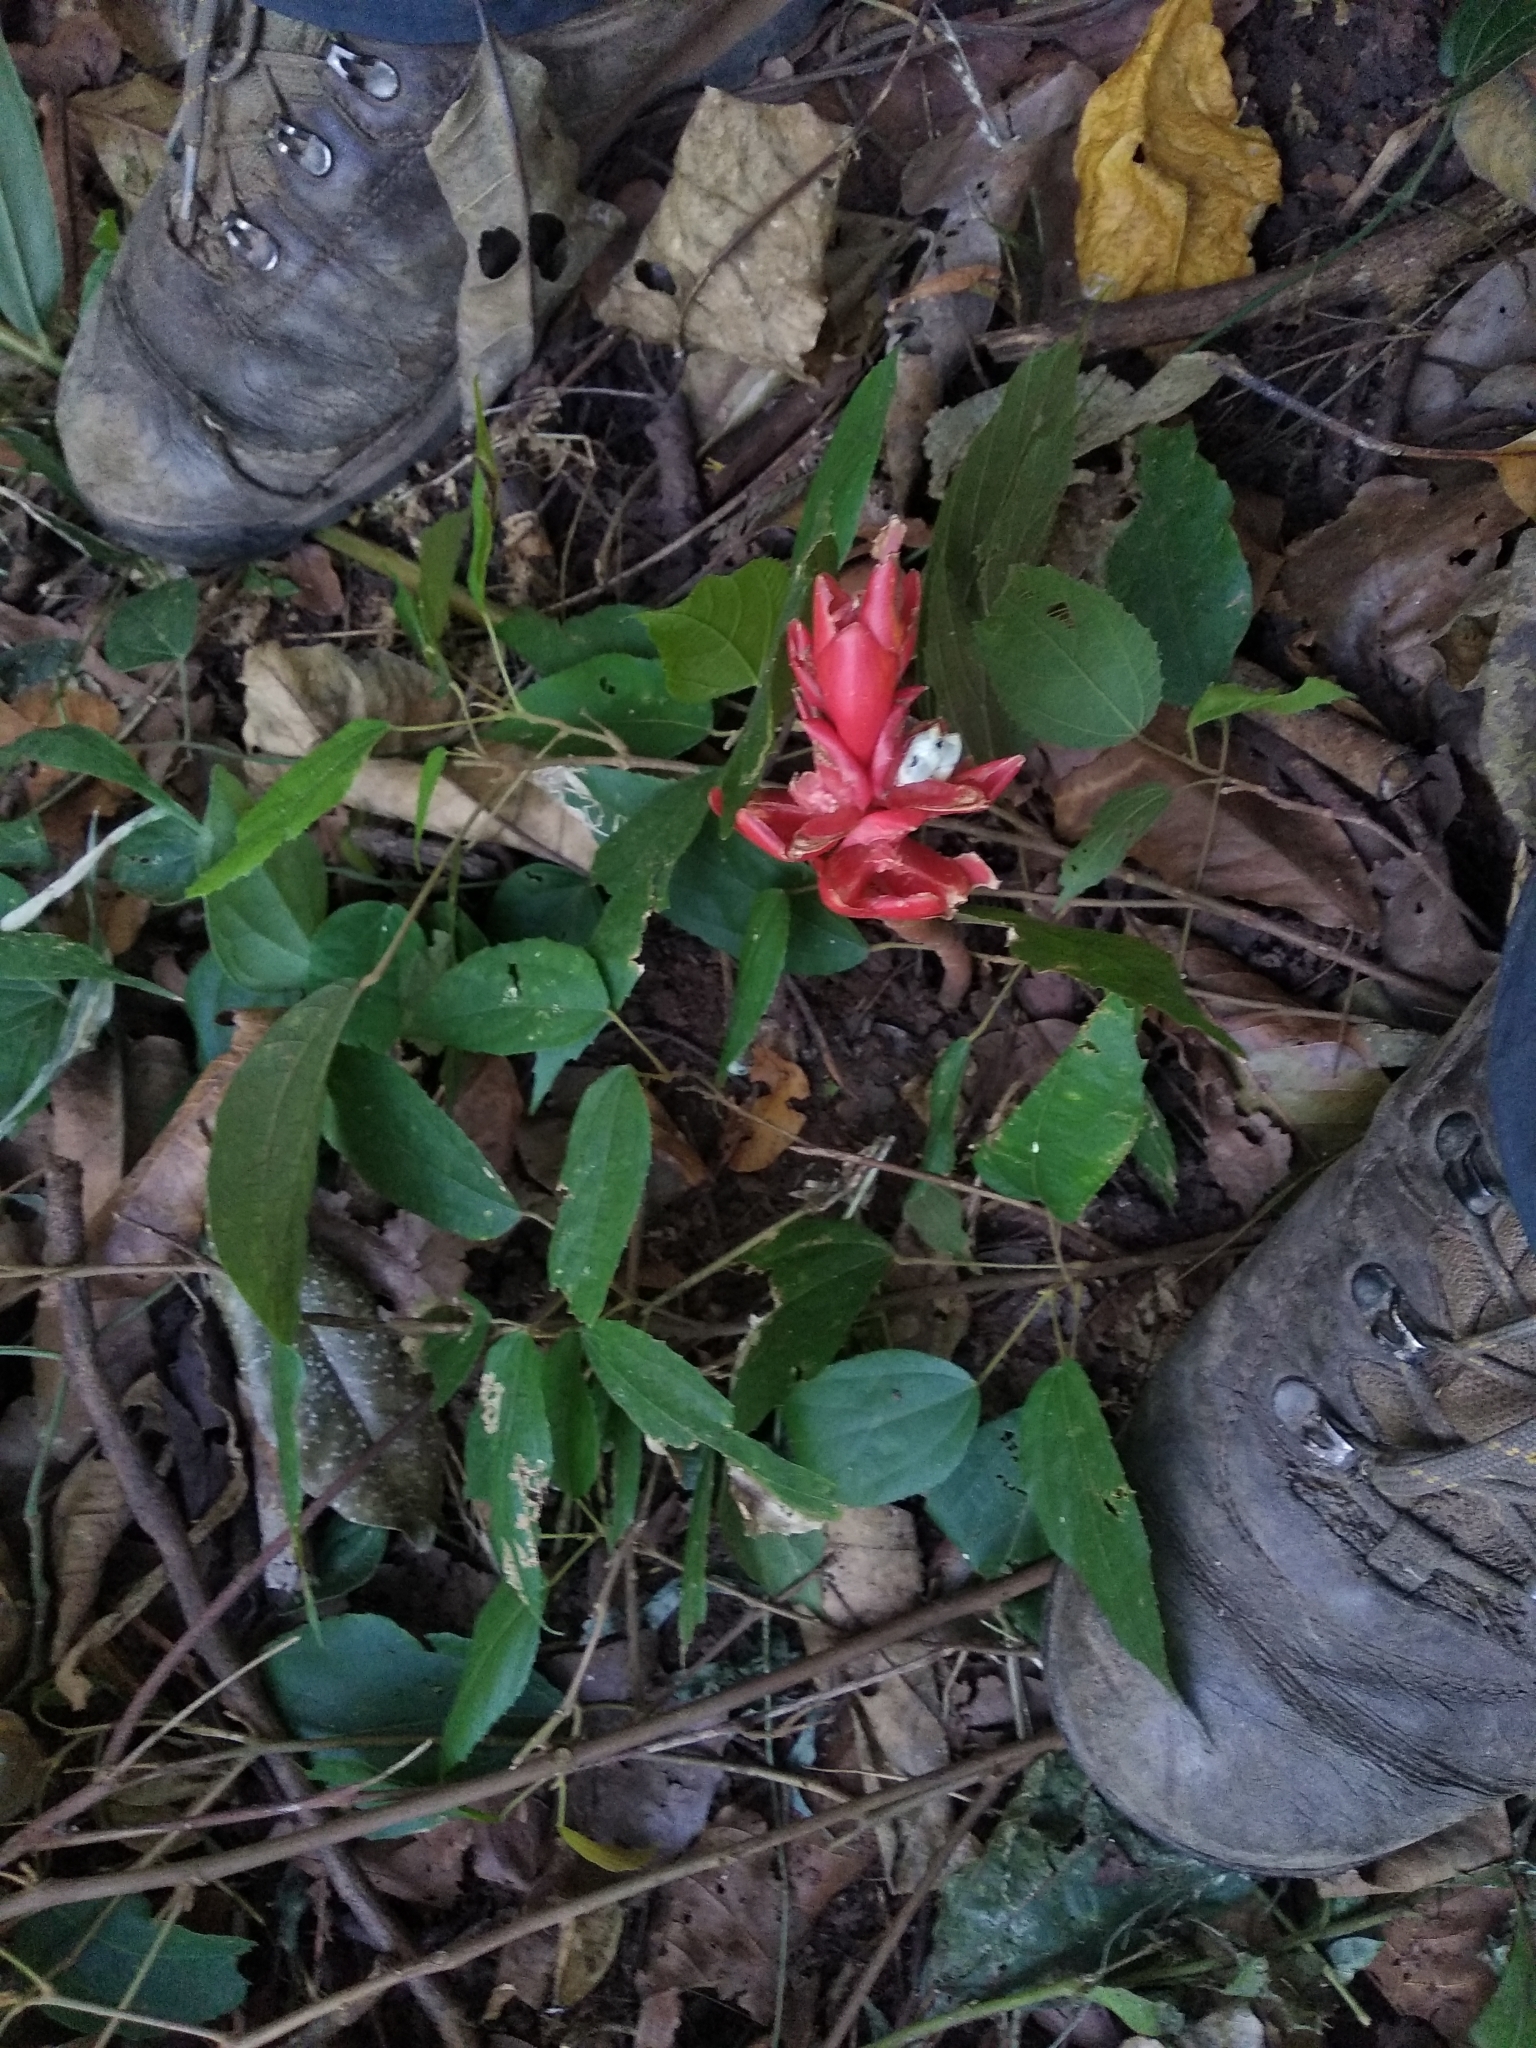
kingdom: Plantae
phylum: Tracheophyta
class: Liliopsida
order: Zingiberales
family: Zingiberaceae
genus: Alpinia
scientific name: Alpinia purpurata
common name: Red ginger
